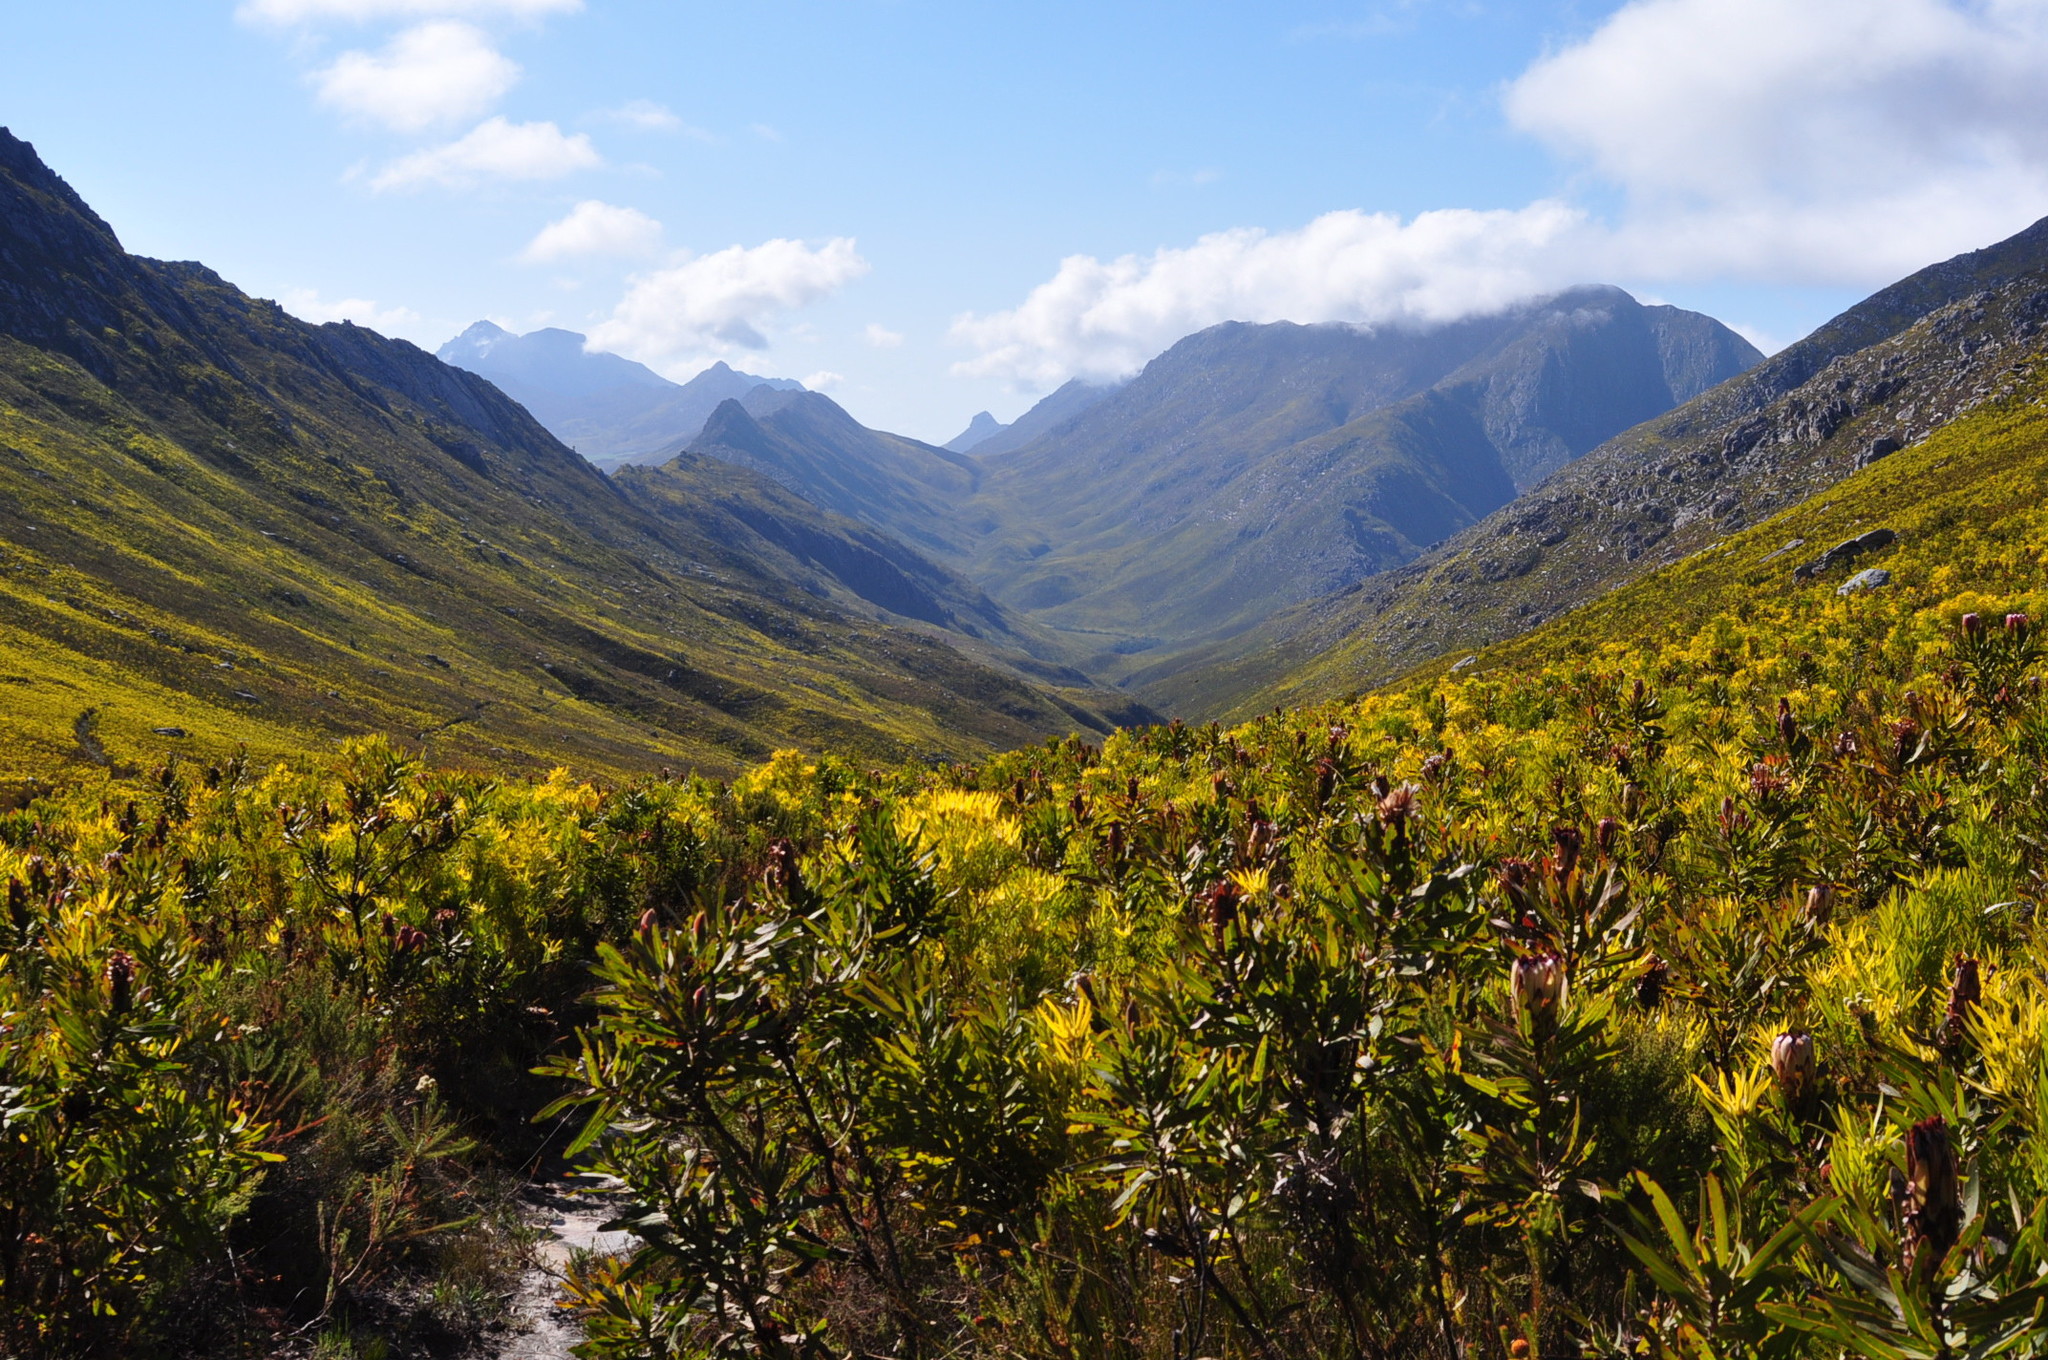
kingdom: Plantae
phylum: Tracheophyta
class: Magnoliopsida
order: Proteales
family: Proteaceae
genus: Leucadendron
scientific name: Leucadendron eucalyptifolium
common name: Gum-leaved conebush
